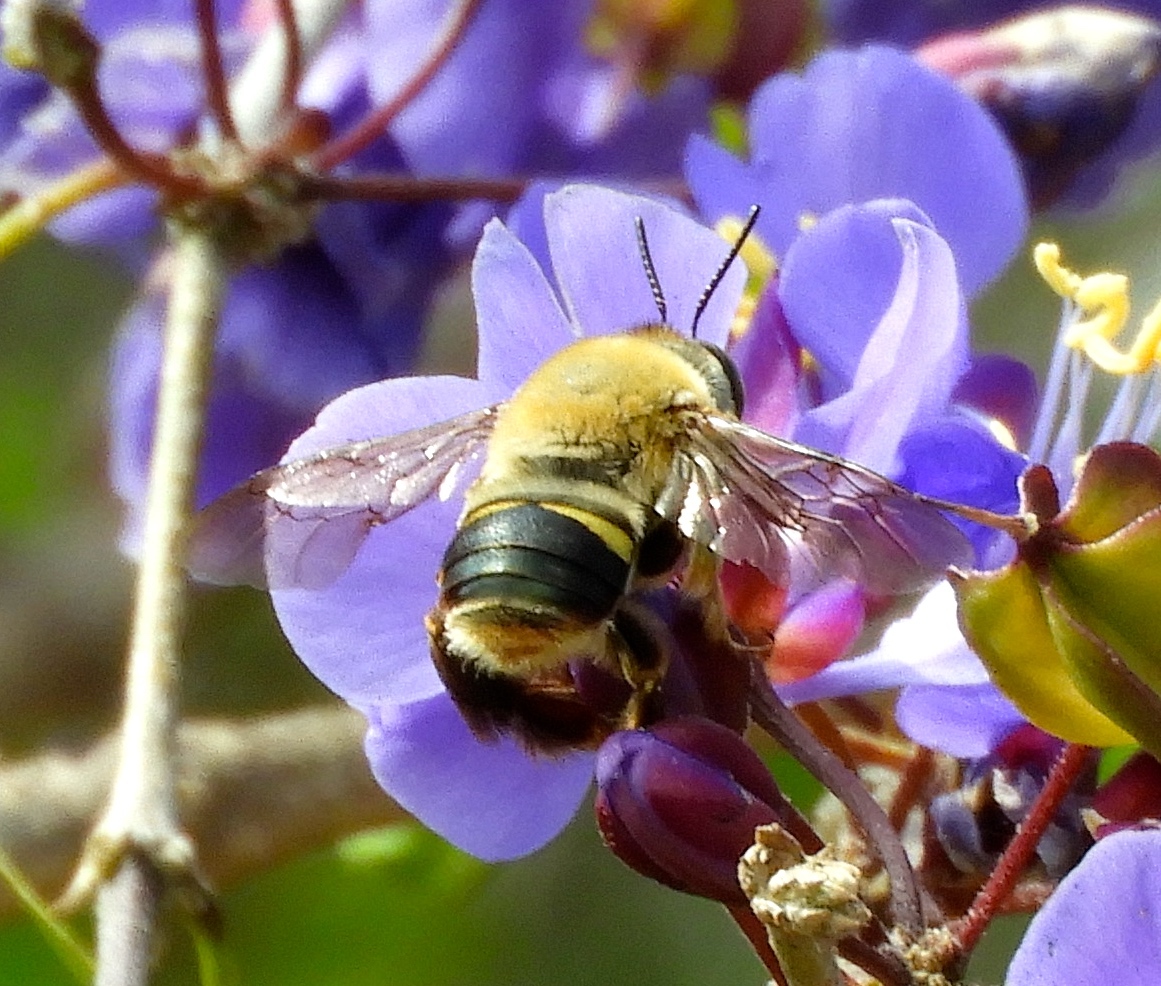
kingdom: Animalia
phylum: Arthropoda
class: Insecta
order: Hymenoptera
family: Apidae
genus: Centris
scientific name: Centris varia
